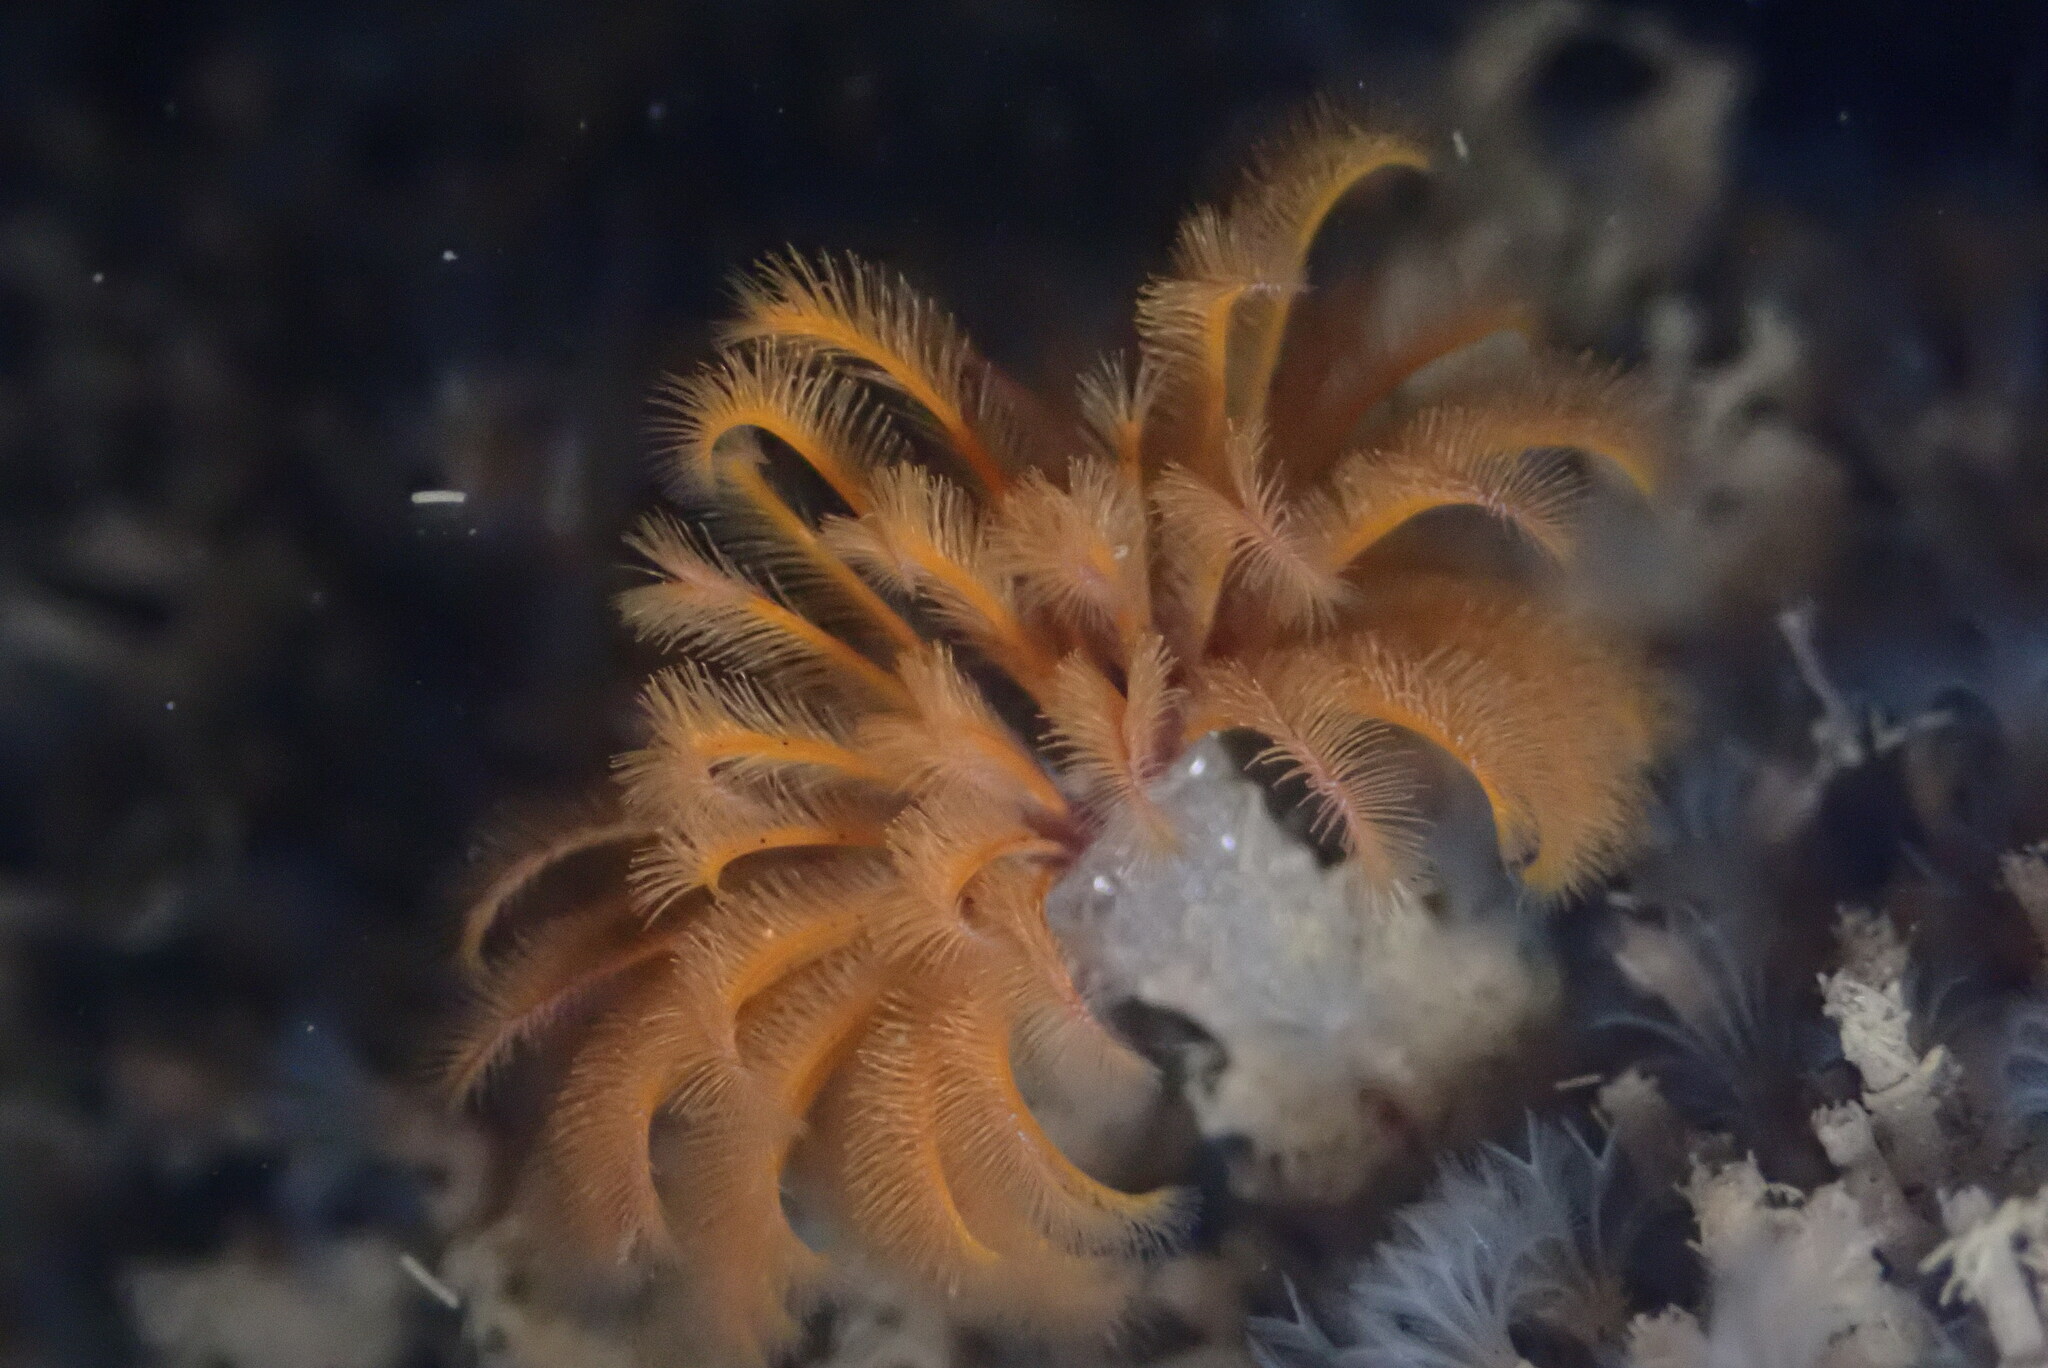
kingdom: Animalia
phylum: Annelida
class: Polychaeta
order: Sabellida
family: Sabellidae
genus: Eudistylia
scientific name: Eudistylia polymorpha
